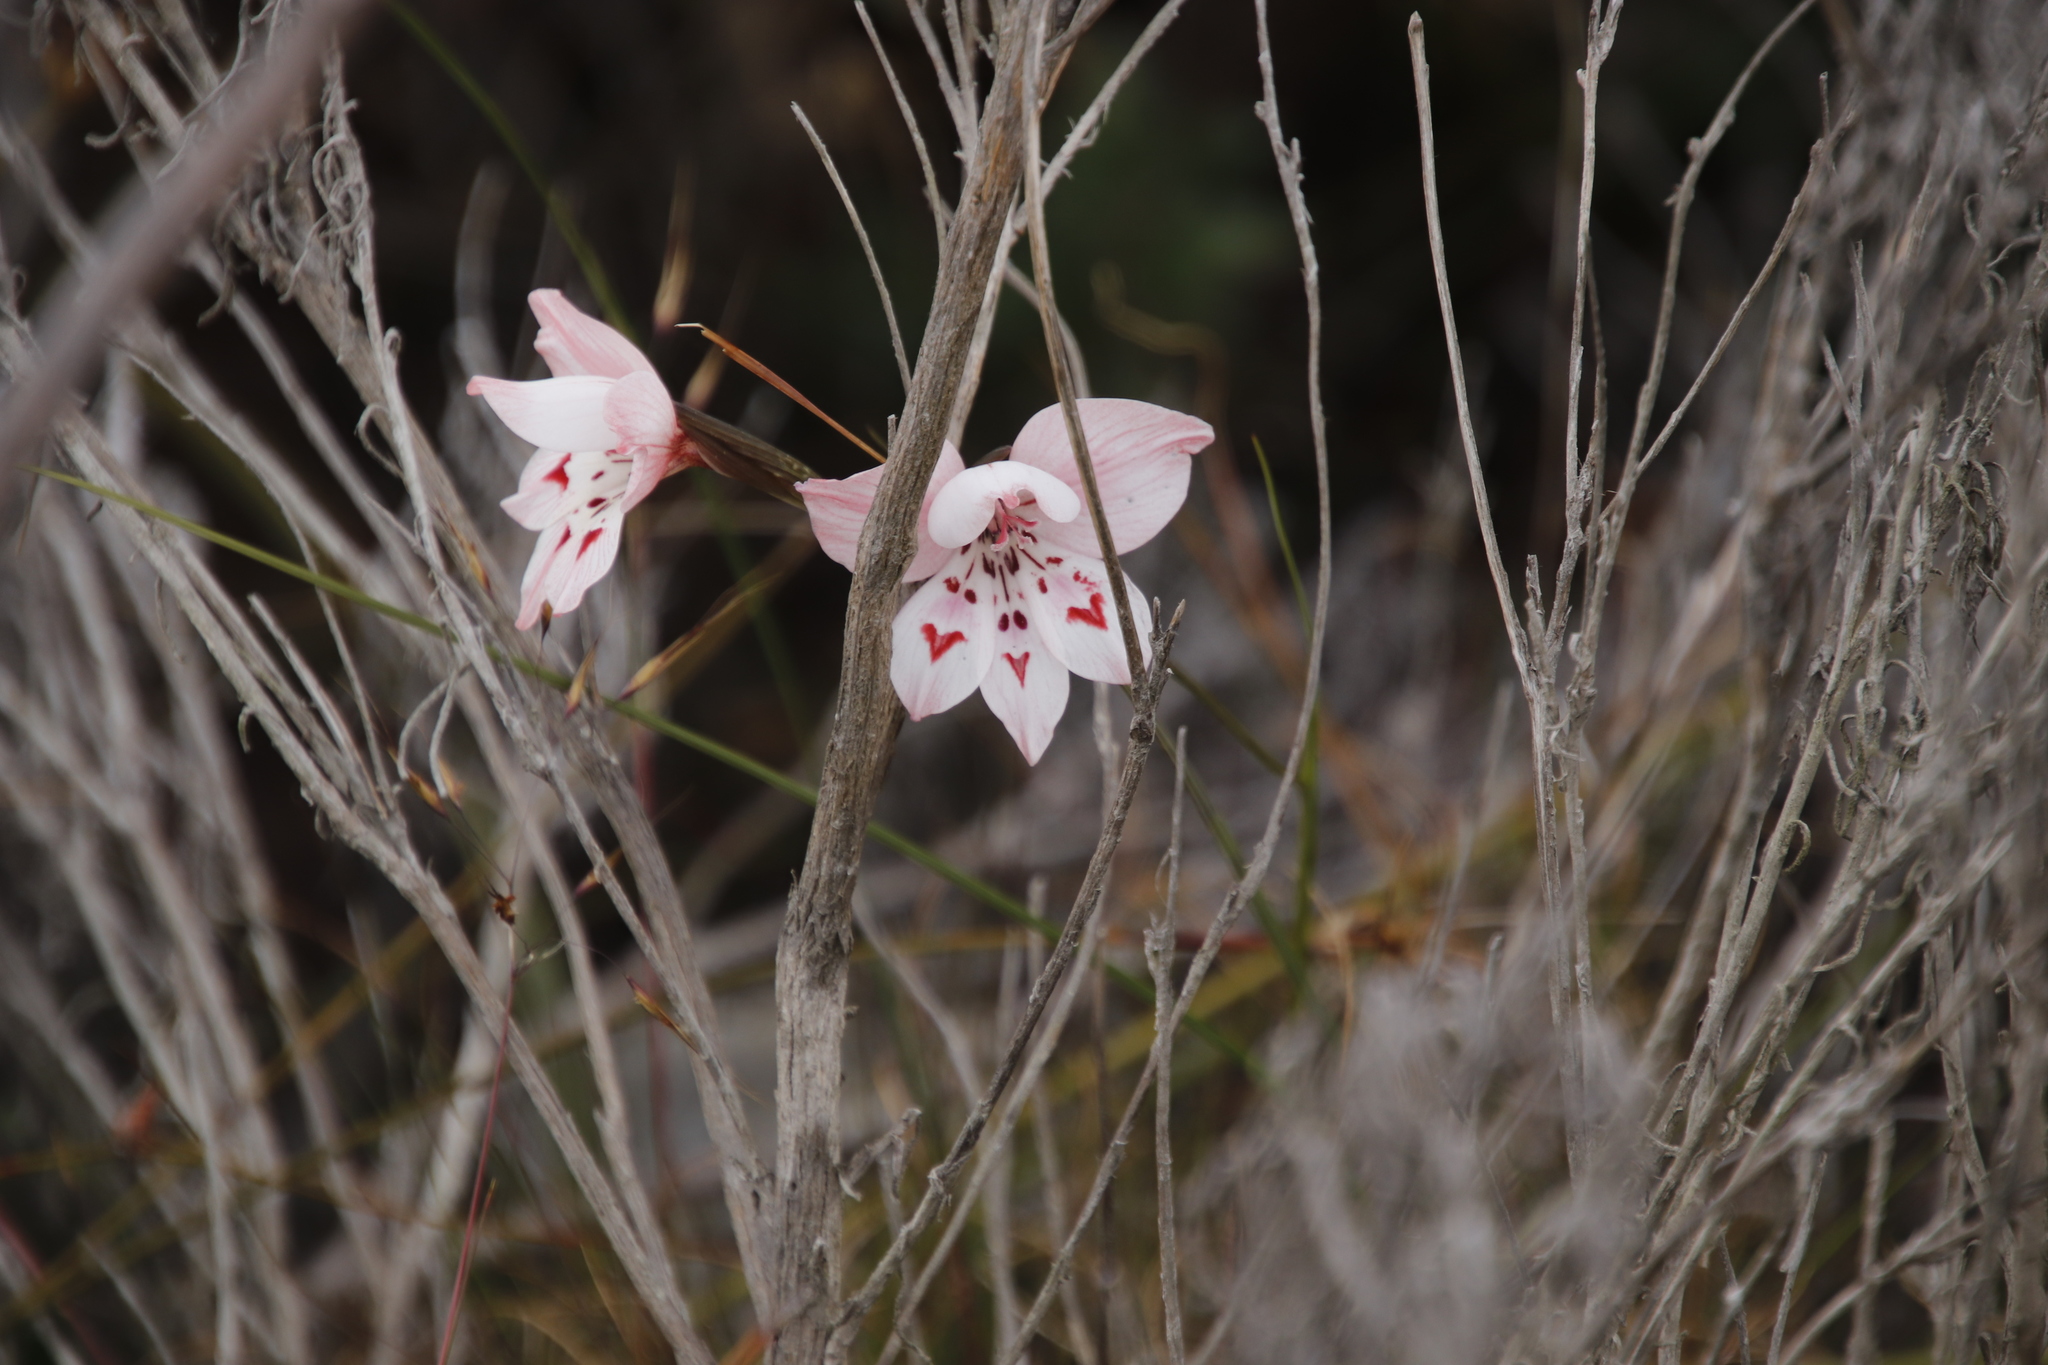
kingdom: Plantae
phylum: Tracheophyta
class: Liliopsida
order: Asparagales
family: Iridaceae
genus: Gladiolus
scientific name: Gladiolus debilis
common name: Painted-lady
